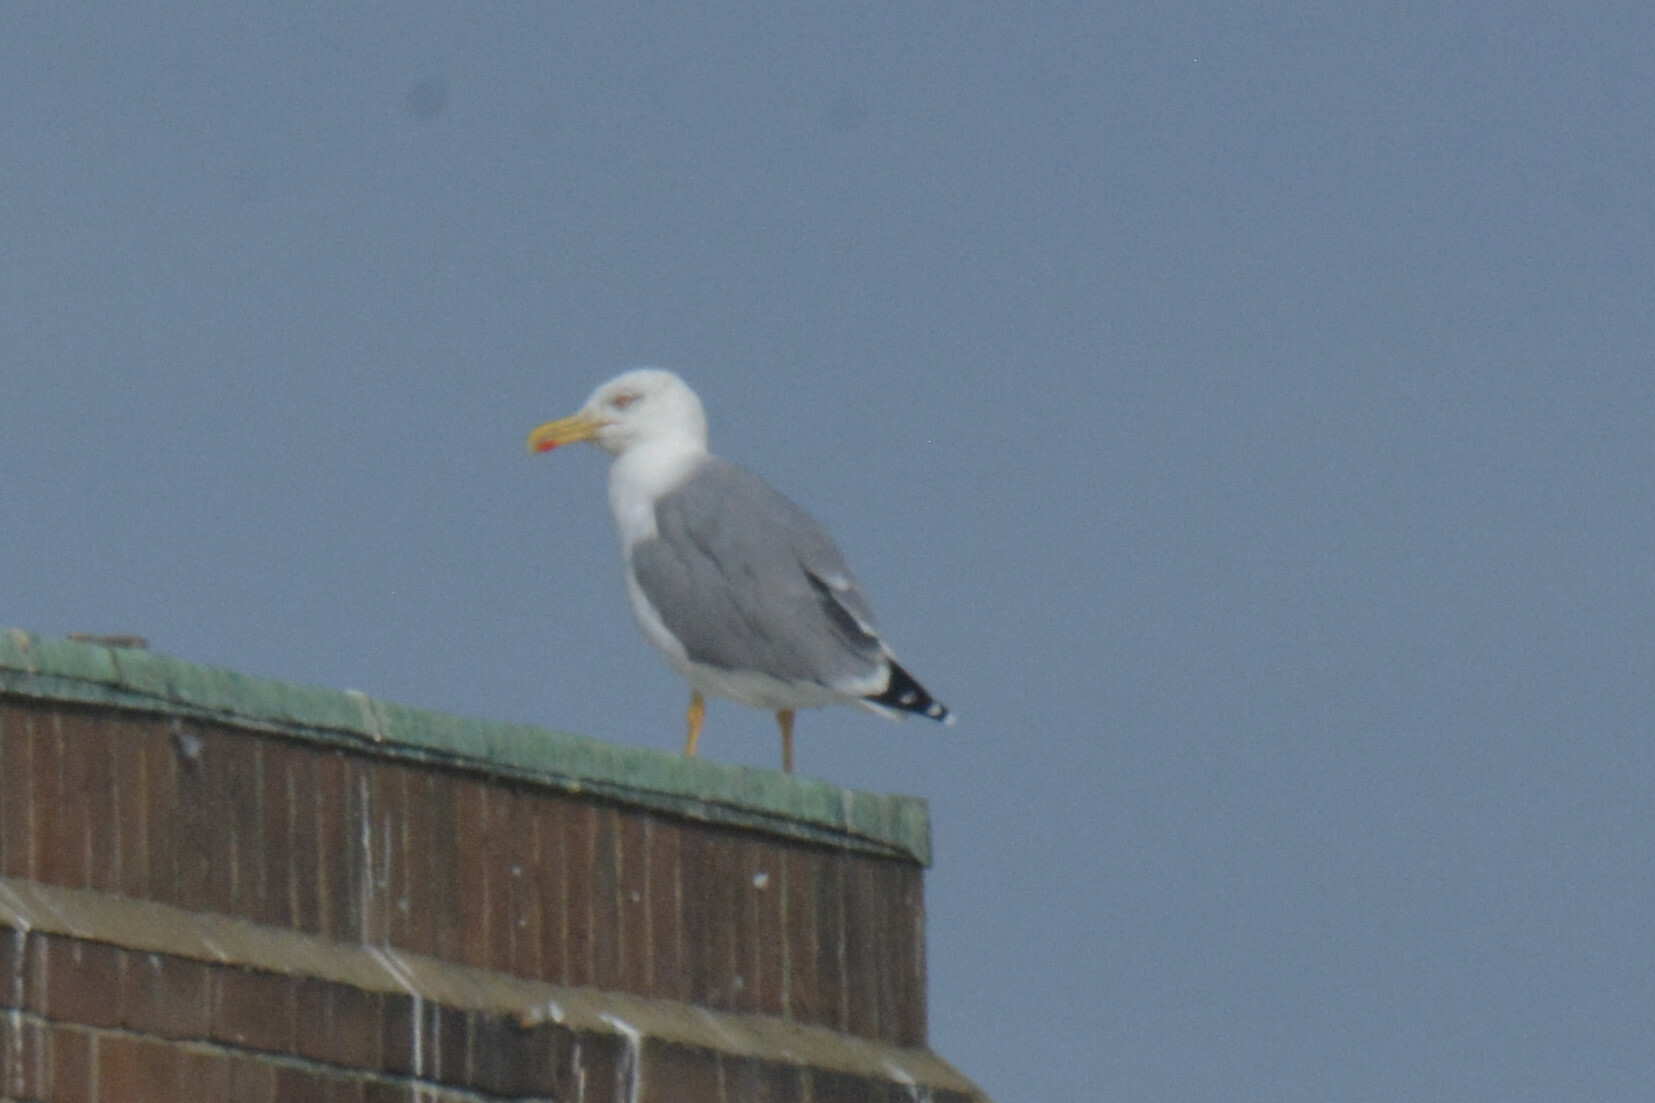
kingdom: Animalia
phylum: Chordata
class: Aves
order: Charadriiformes
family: Laridae
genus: Larus
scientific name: Larus michahellis
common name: Yellow-legged gull
